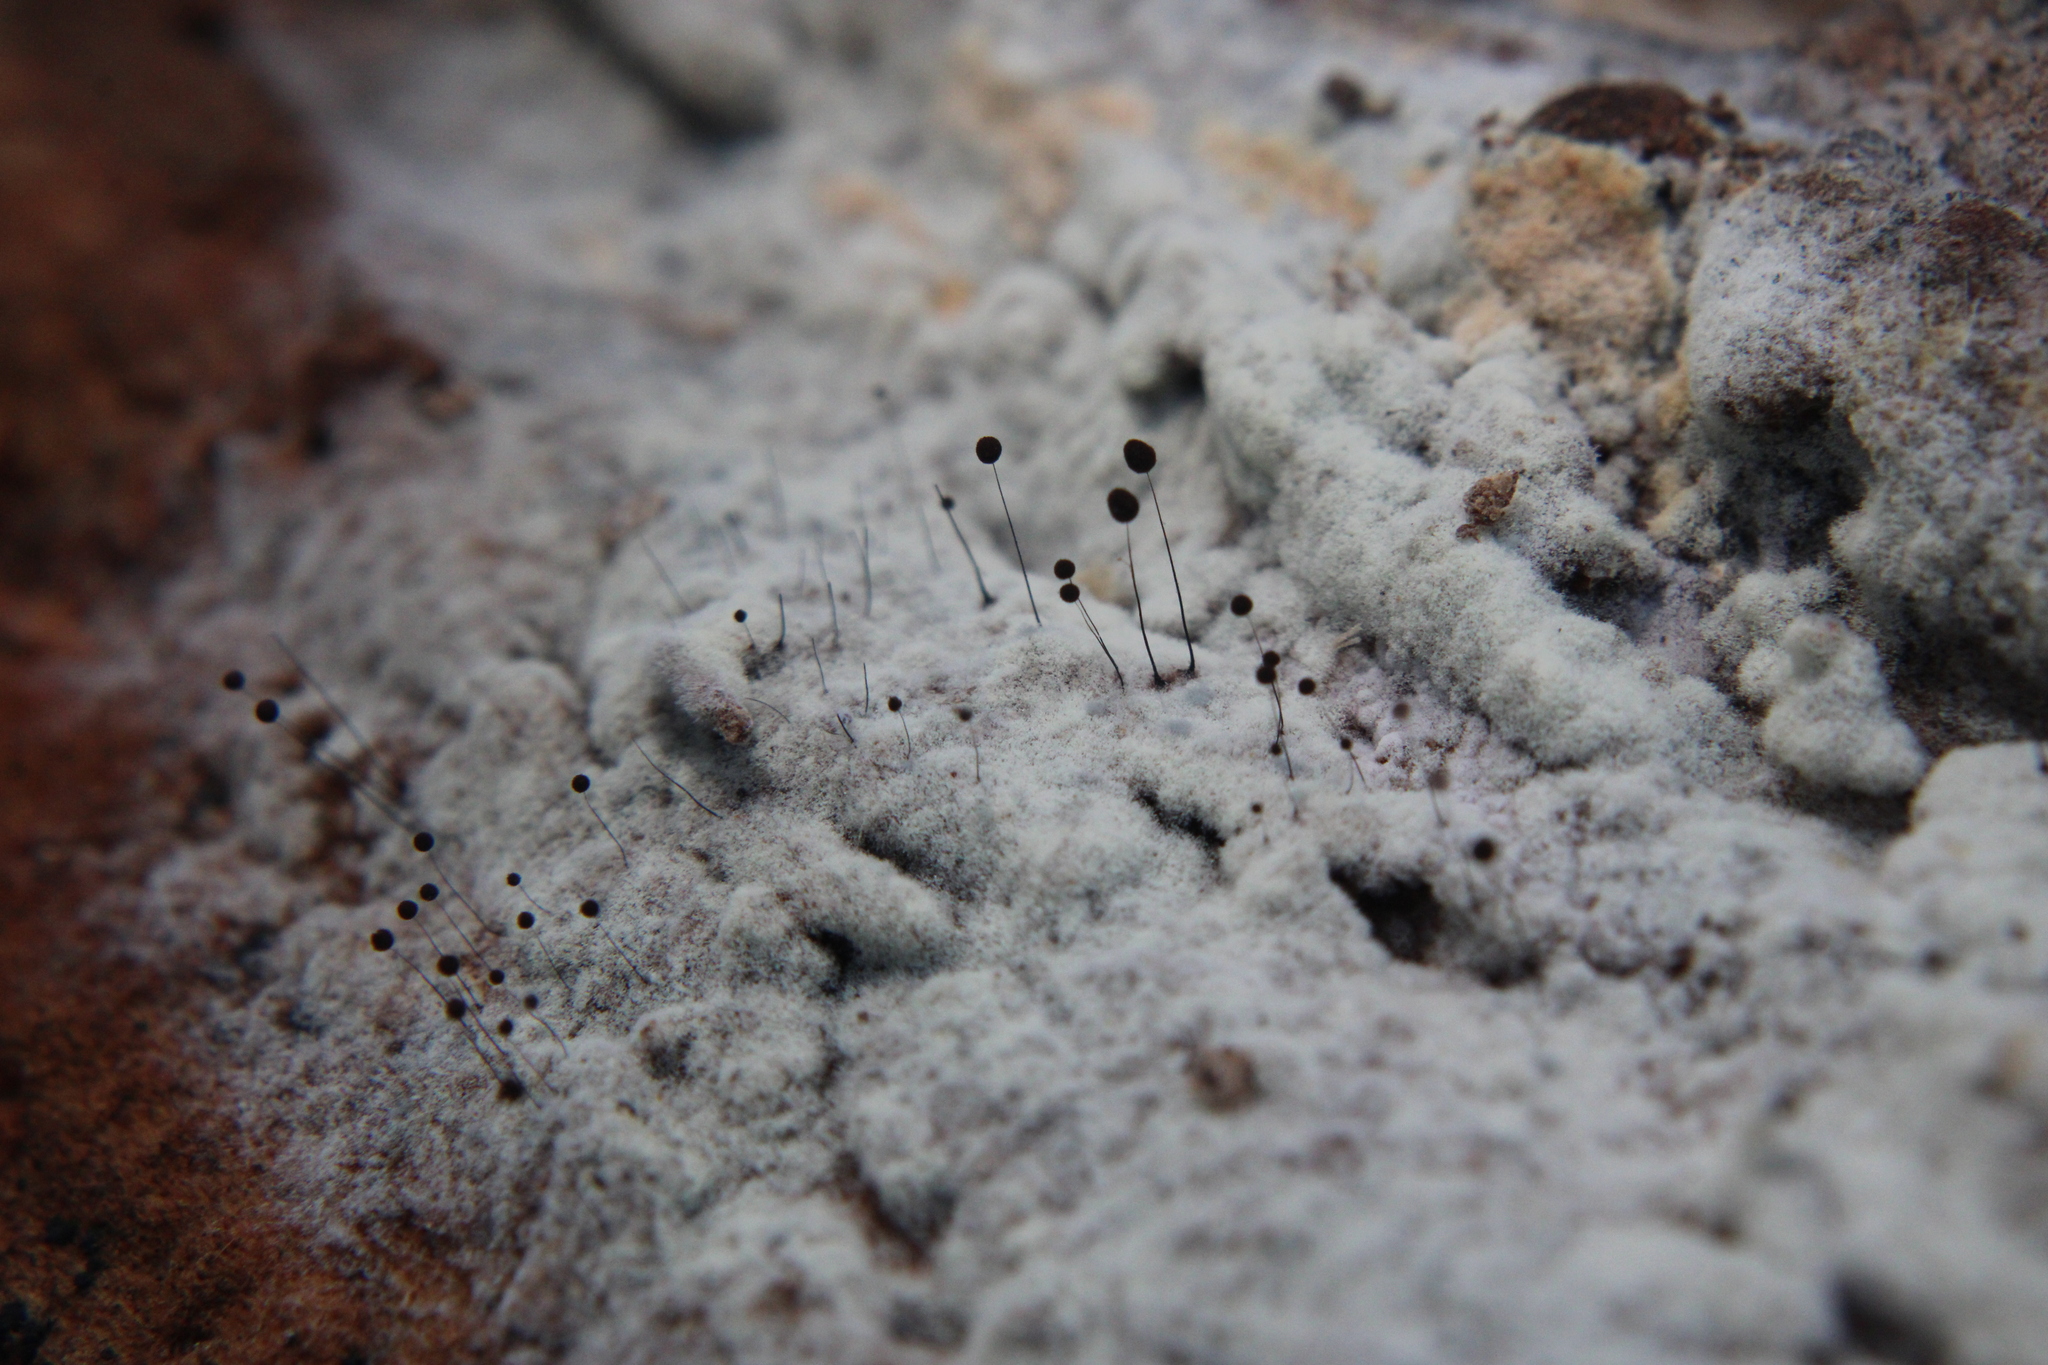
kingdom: Protozoa
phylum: Mycetozoa
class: Myxomycetes
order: Stemonitidales
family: Stemonitidaceae
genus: Comatricha
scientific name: Comatricha nigra
